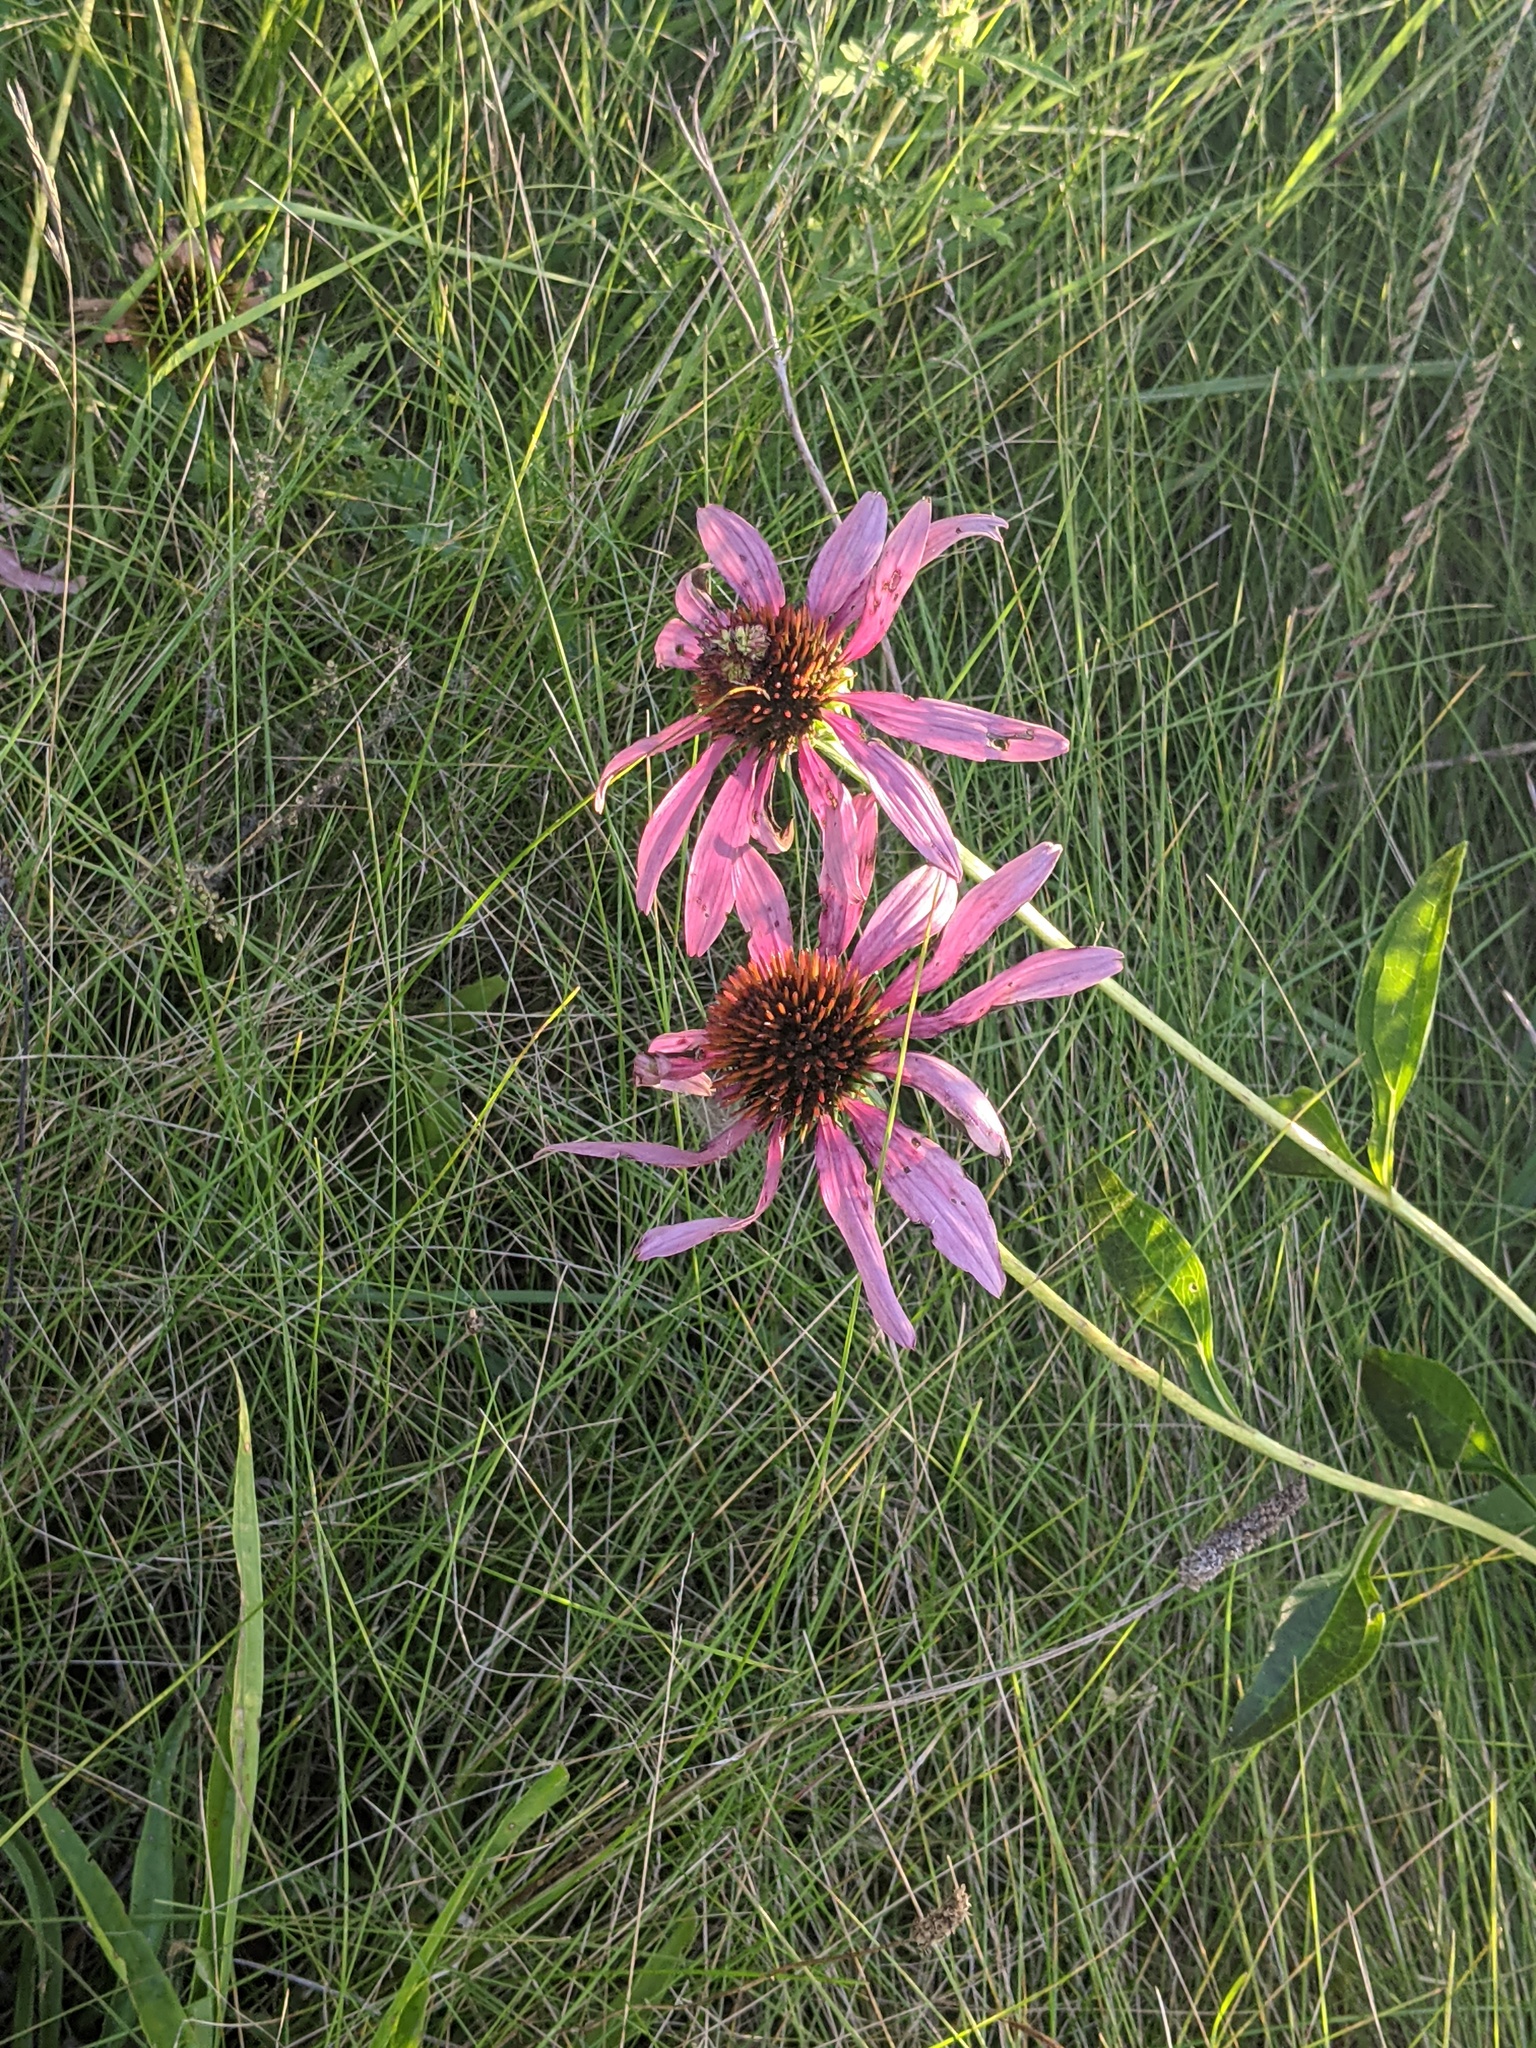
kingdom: Plantae
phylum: Tracheophyta
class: Magnoliopsida
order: Asterales
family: Asteraceae
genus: Echinacea
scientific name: Echinacea purpurea
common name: Broad-leaved purple coneflower
